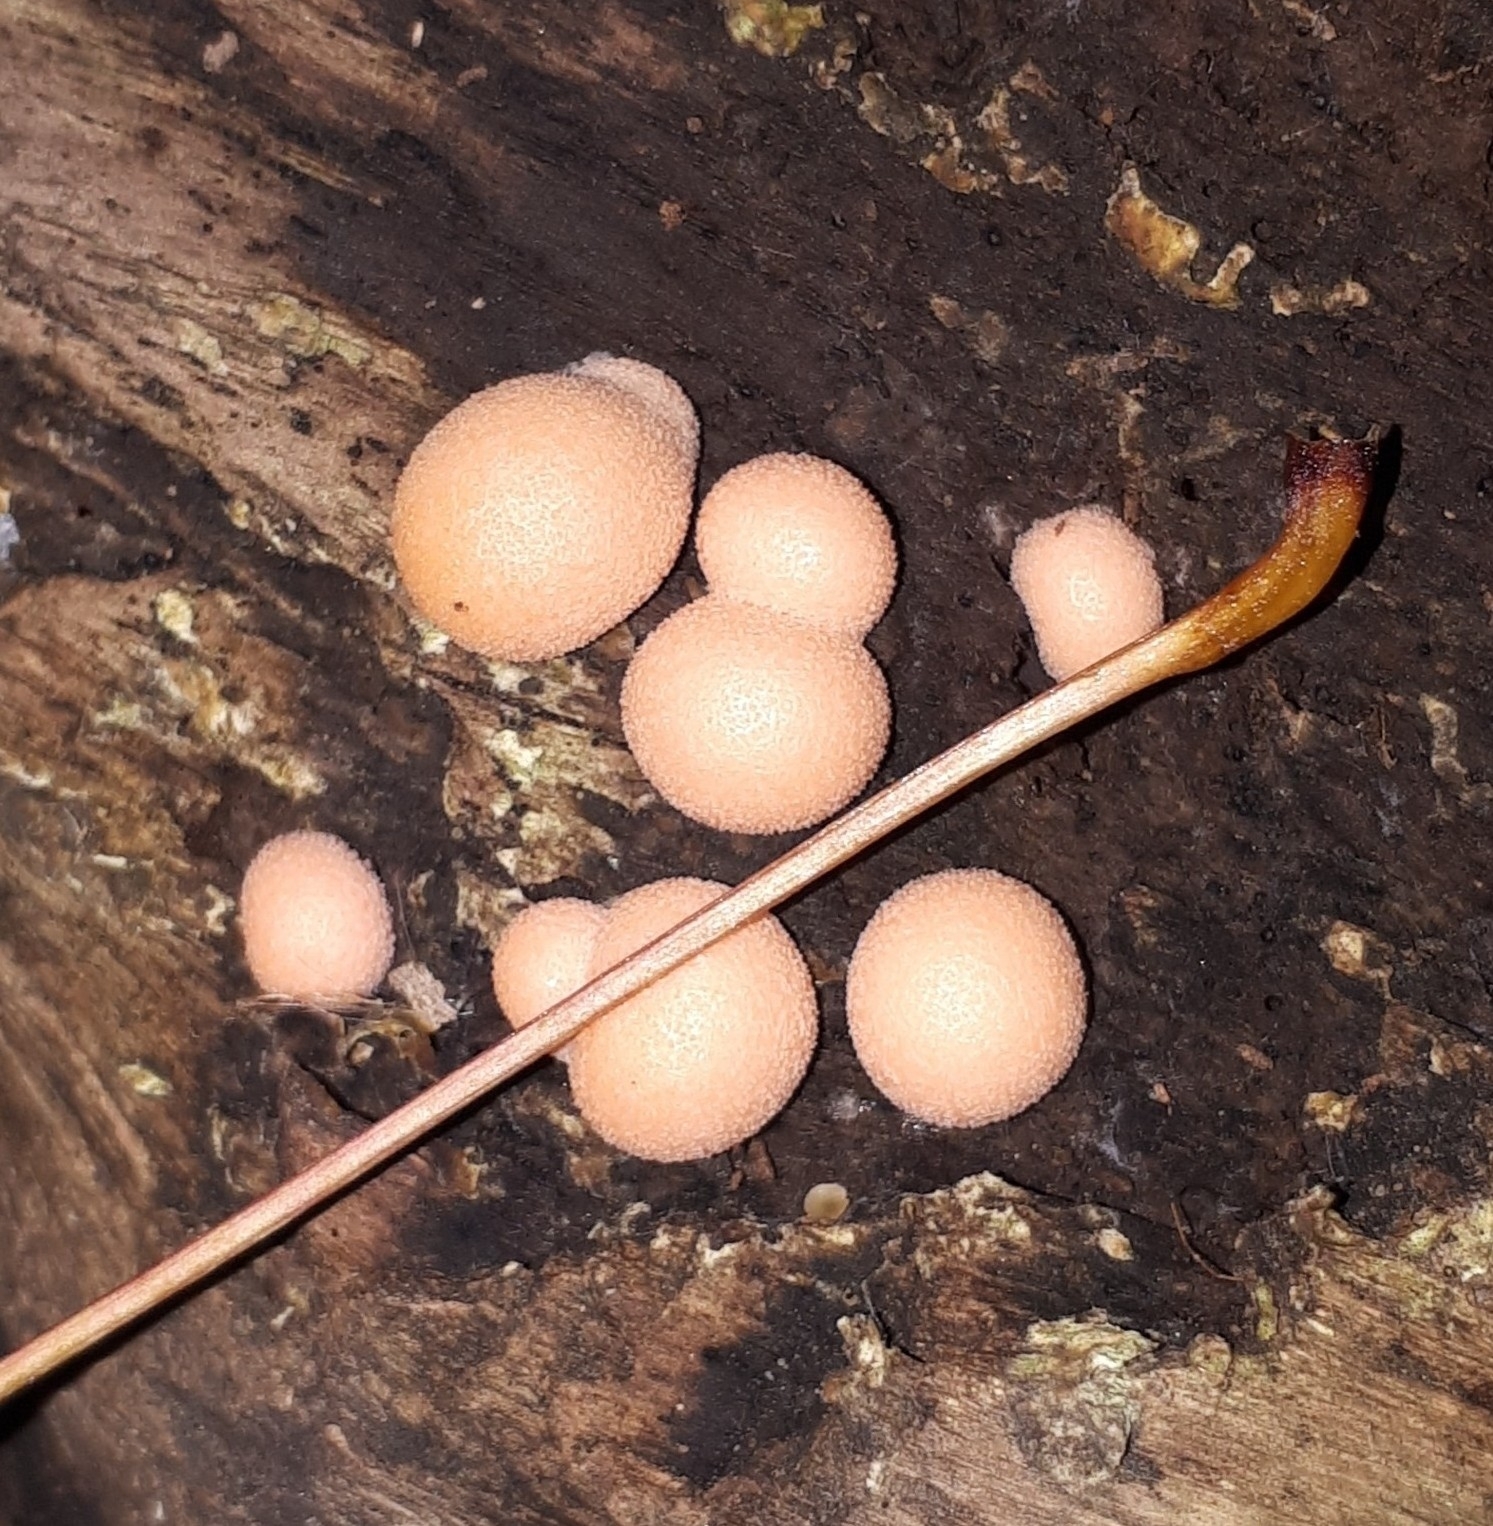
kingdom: Protozoa
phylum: Mycetozoa
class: Myxomycetes
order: Cribrariales
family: Tubiferaceae
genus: Lycogala
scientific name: Lycogala epidendrum
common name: Wolf's milk
